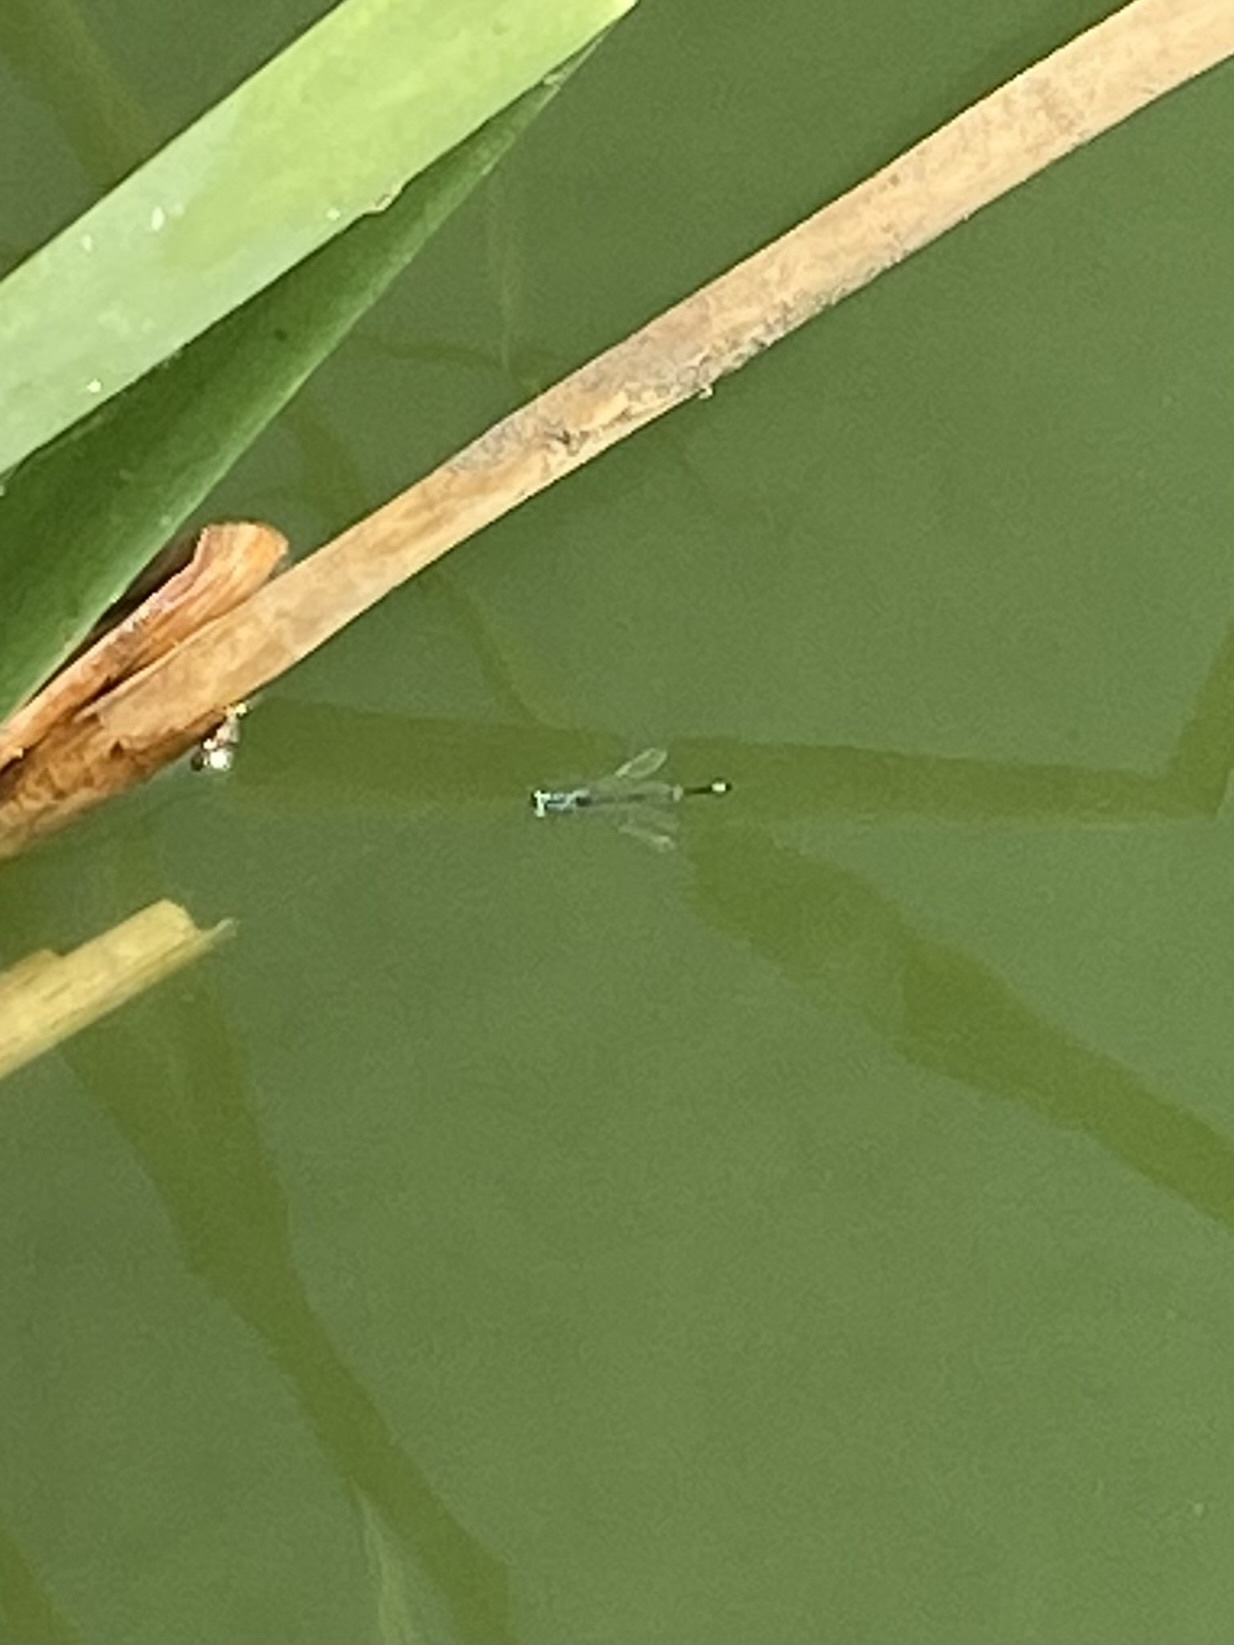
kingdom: Animalia
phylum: Arthropoda
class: Insecta
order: Odonata
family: Coenagrionidae
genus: Ischnura
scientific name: Ischnura elegans
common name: Blue-tailed damselfly
